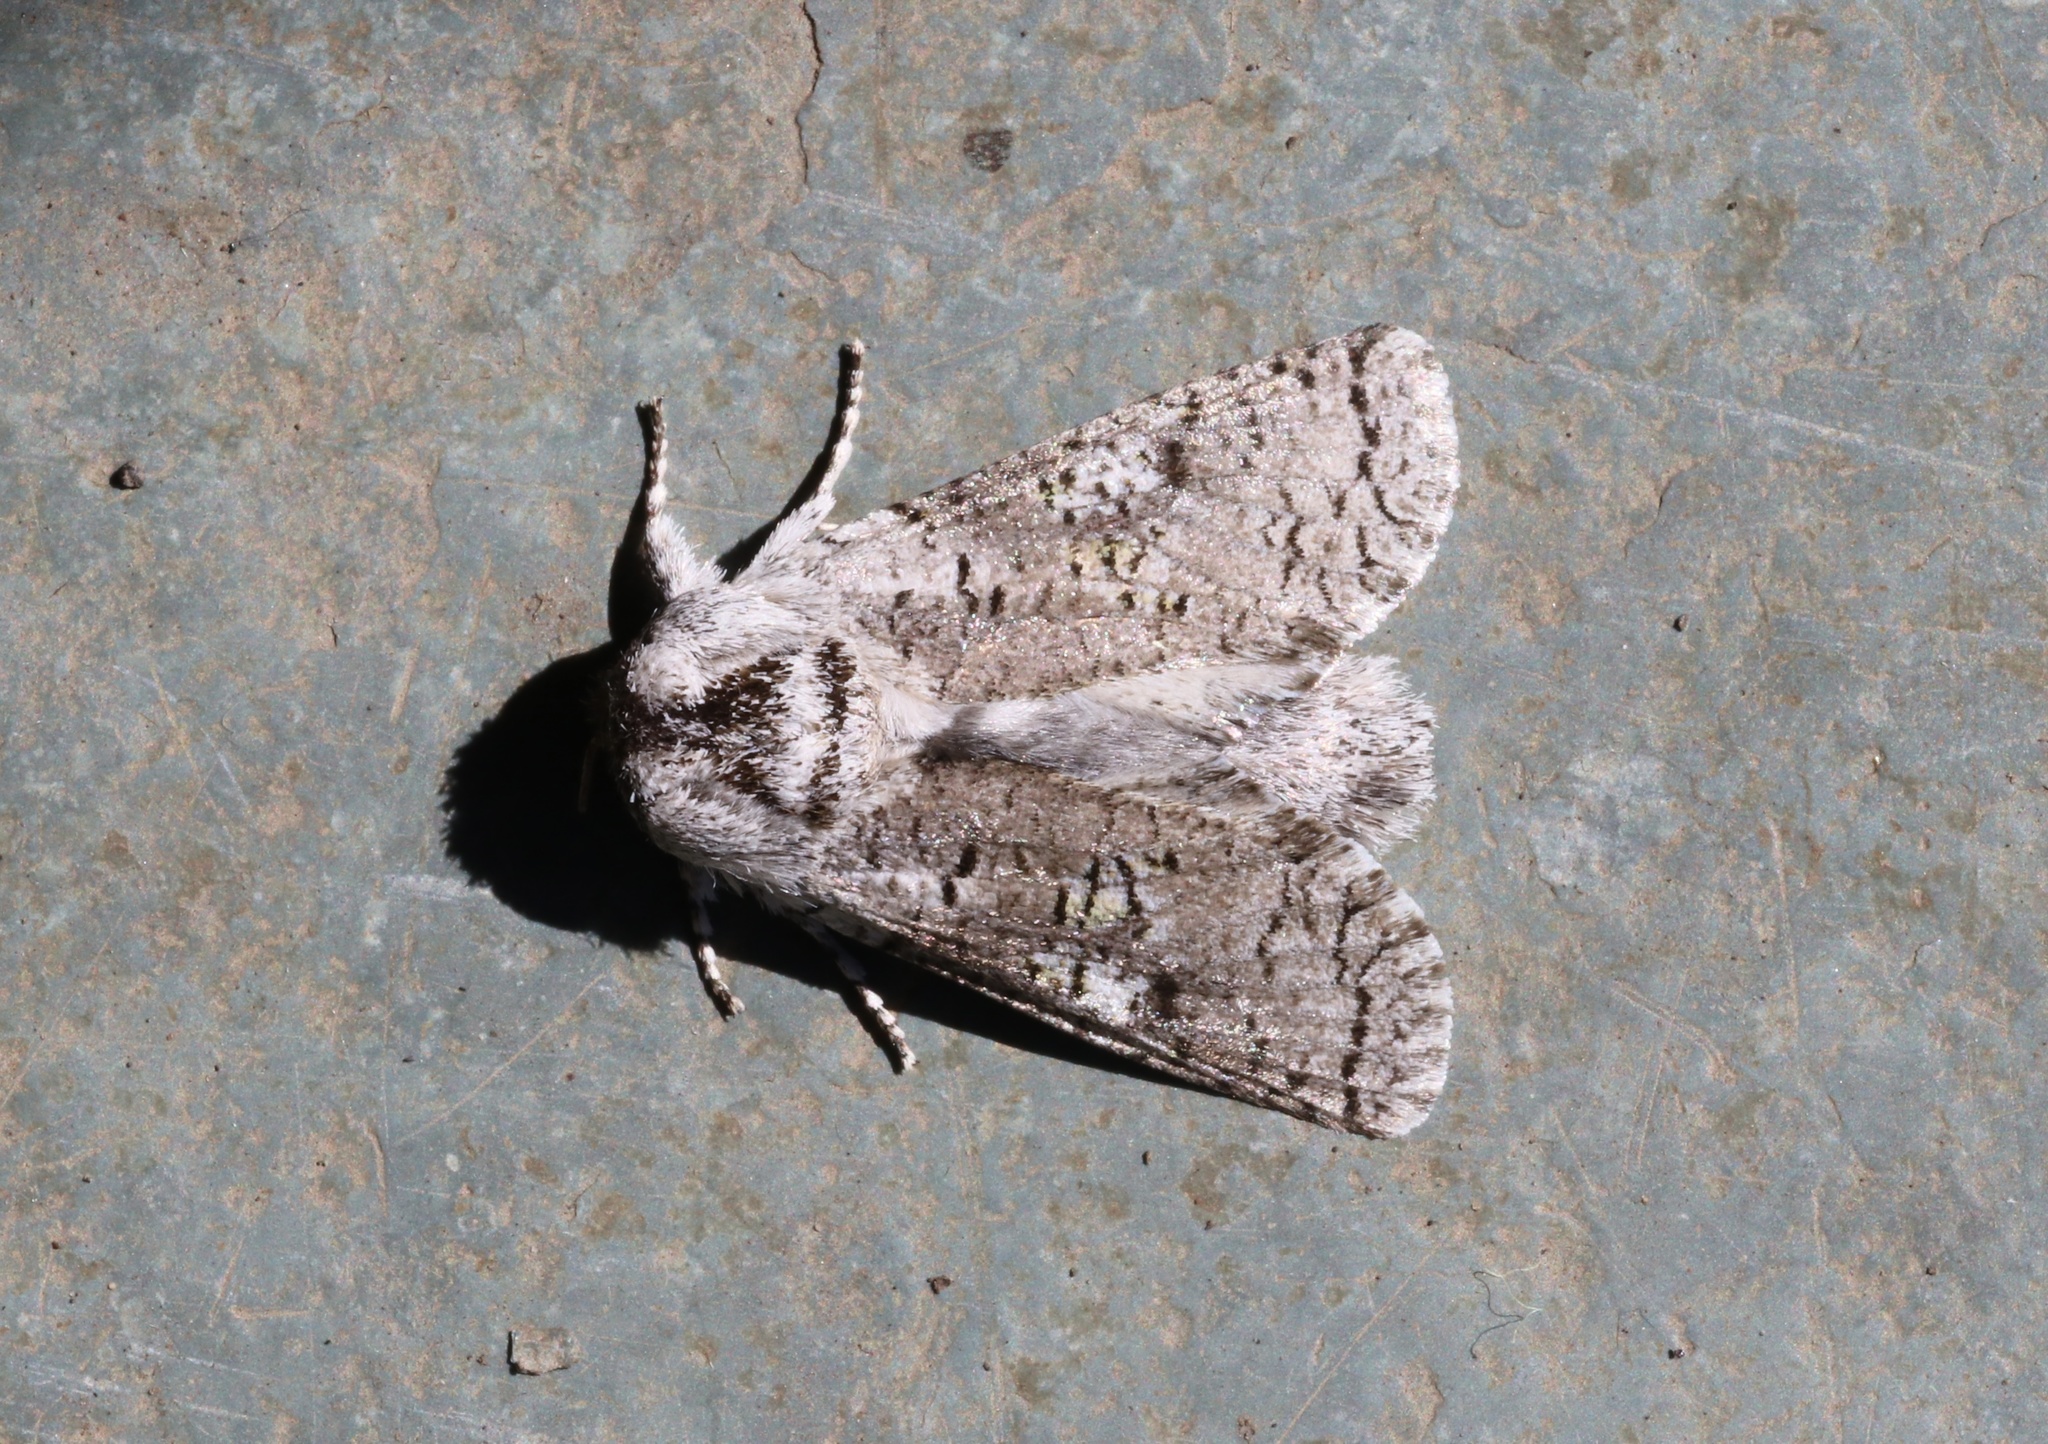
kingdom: Animalia
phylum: Arthropoda
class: Insecta
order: Lepidoptera
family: Cossidae
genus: Chilecomadia
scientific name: Chilecomadia valdiviana
